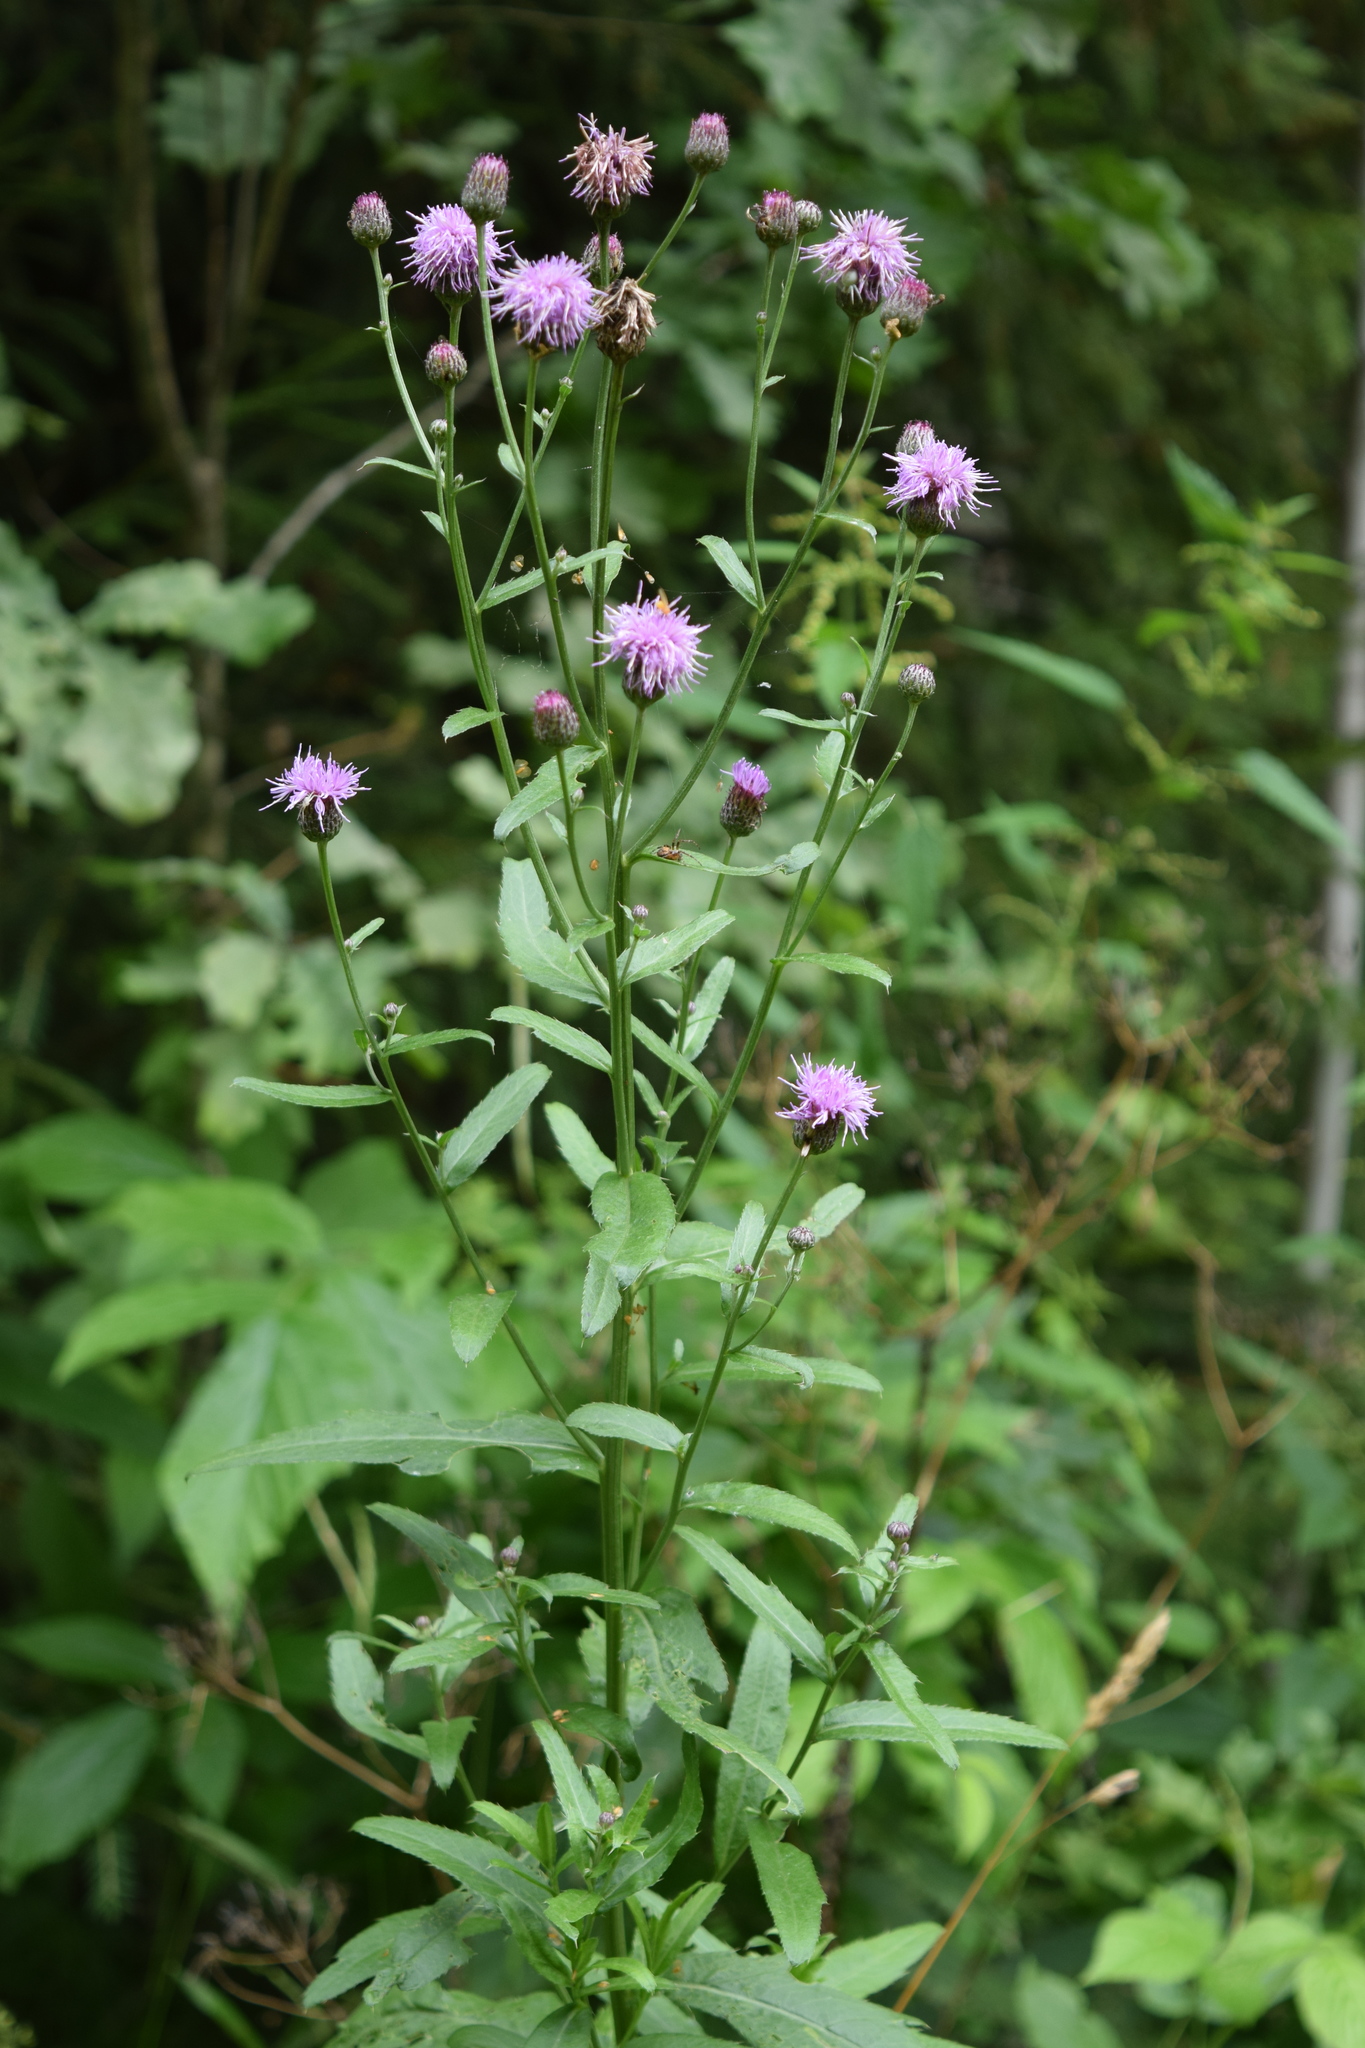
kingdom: Plantae
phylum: Tracheophyta
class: Magnoliopsida
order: Asterales
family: Asteraceae
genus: Cirsium
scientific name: Cirsium arvense
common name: Creeping thistle
